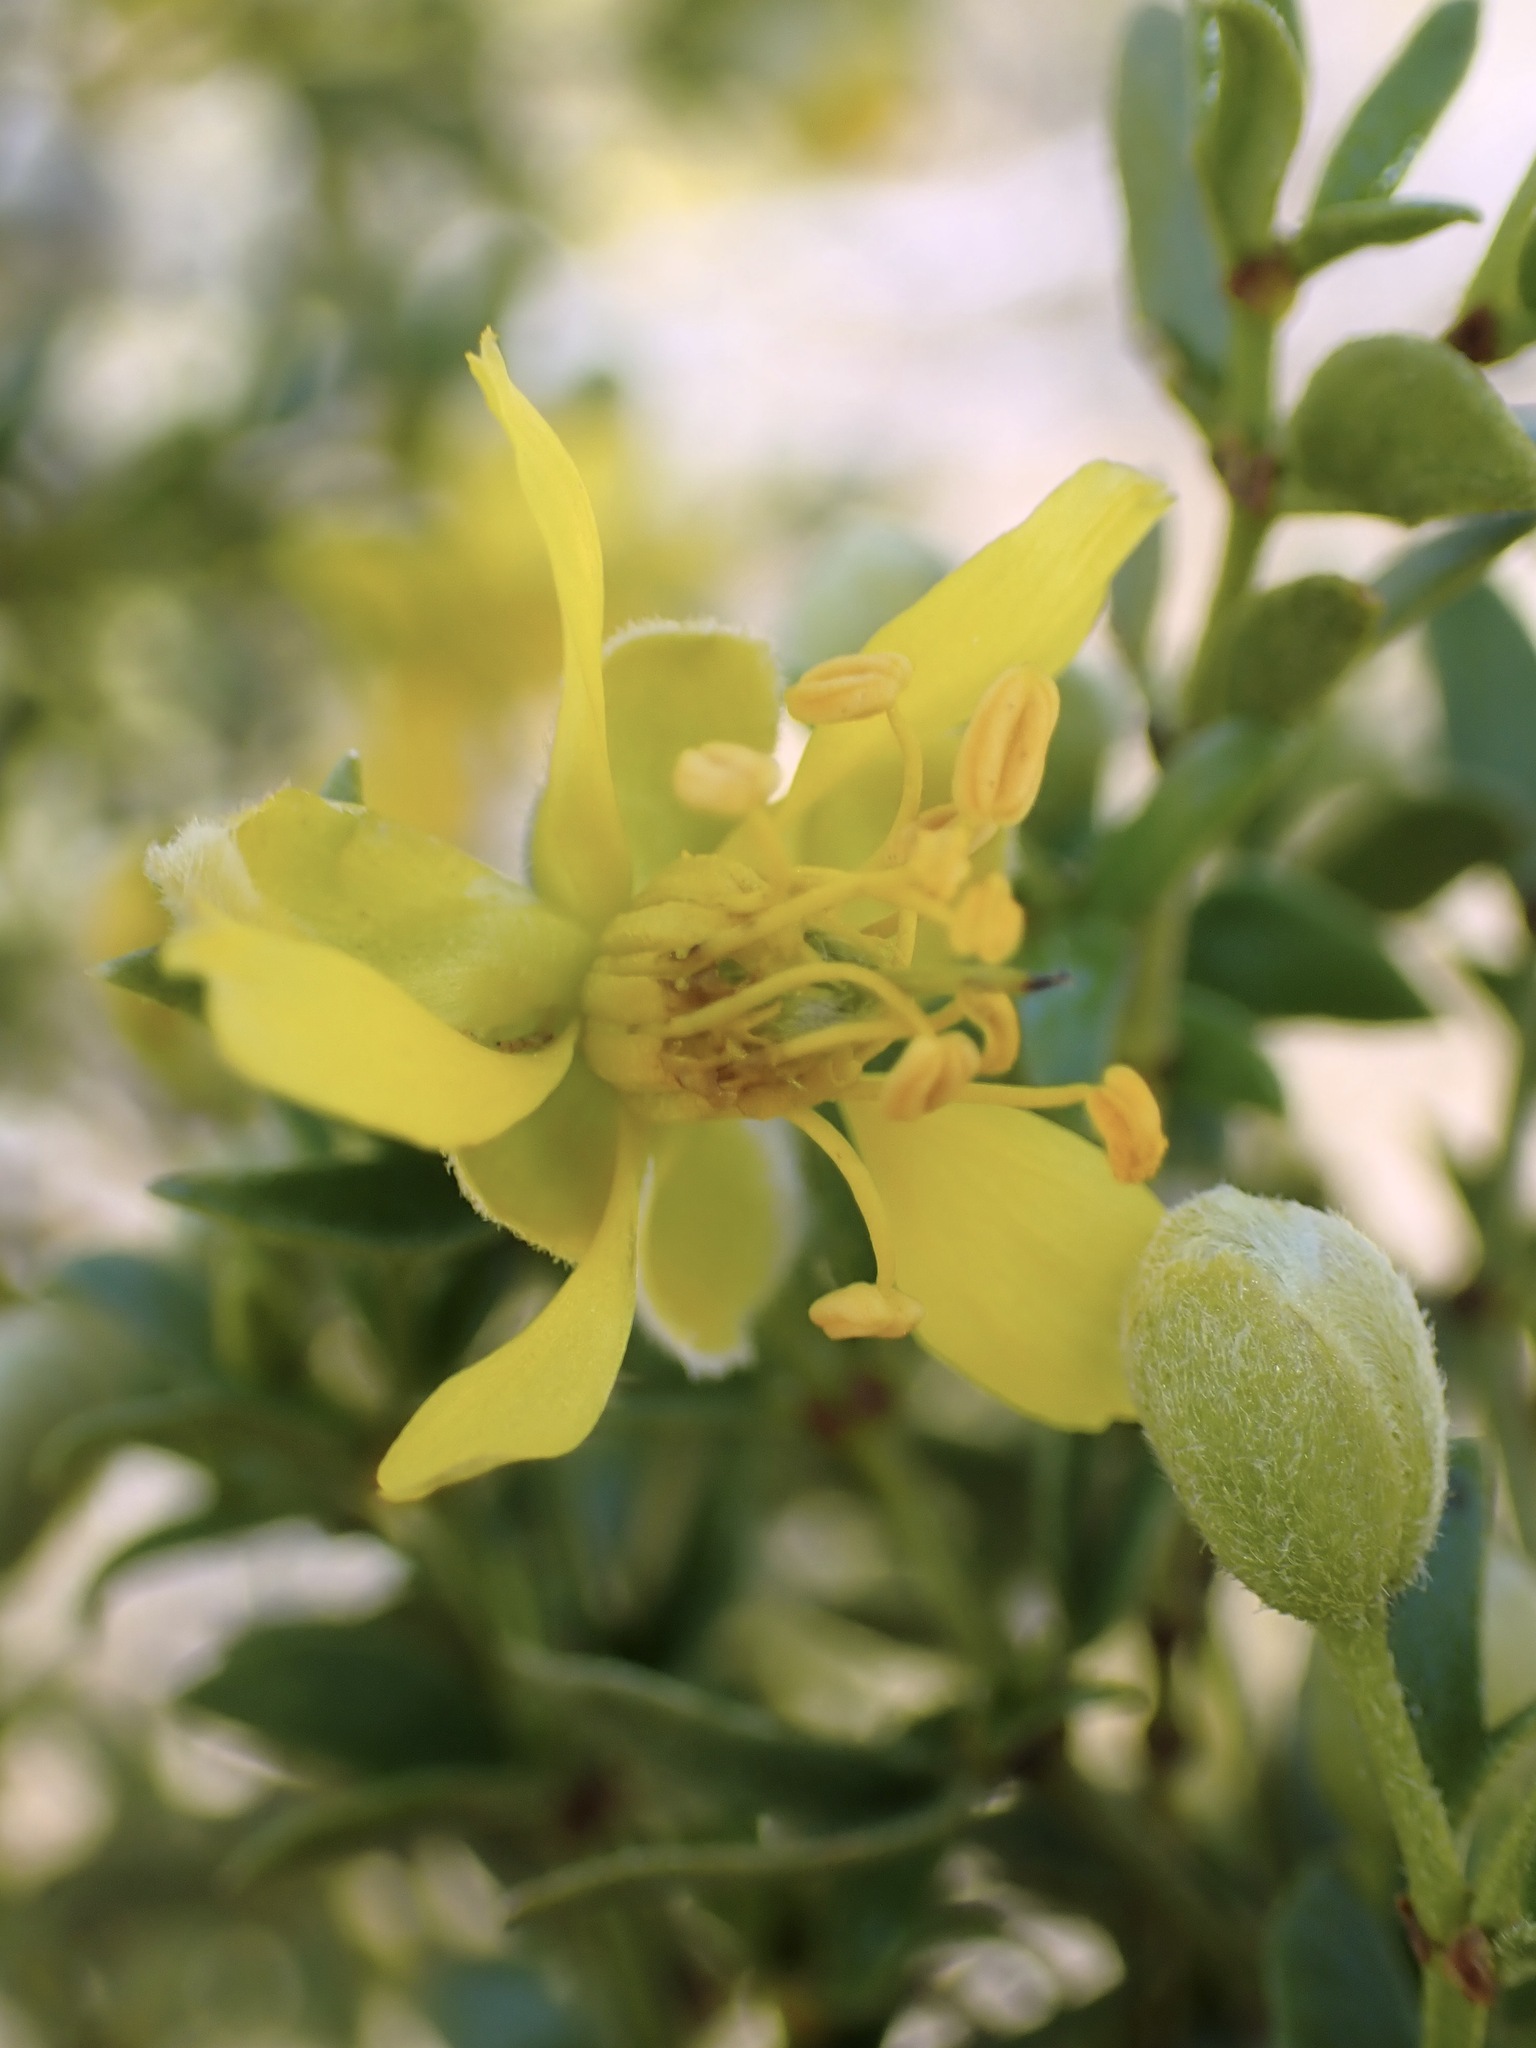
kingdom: Plantae
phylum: Tracheophyta
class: Magnoliopsida
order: Zygophyllales
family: Zygophyllaceae
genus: Larrea
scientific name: Larrea tridentata
